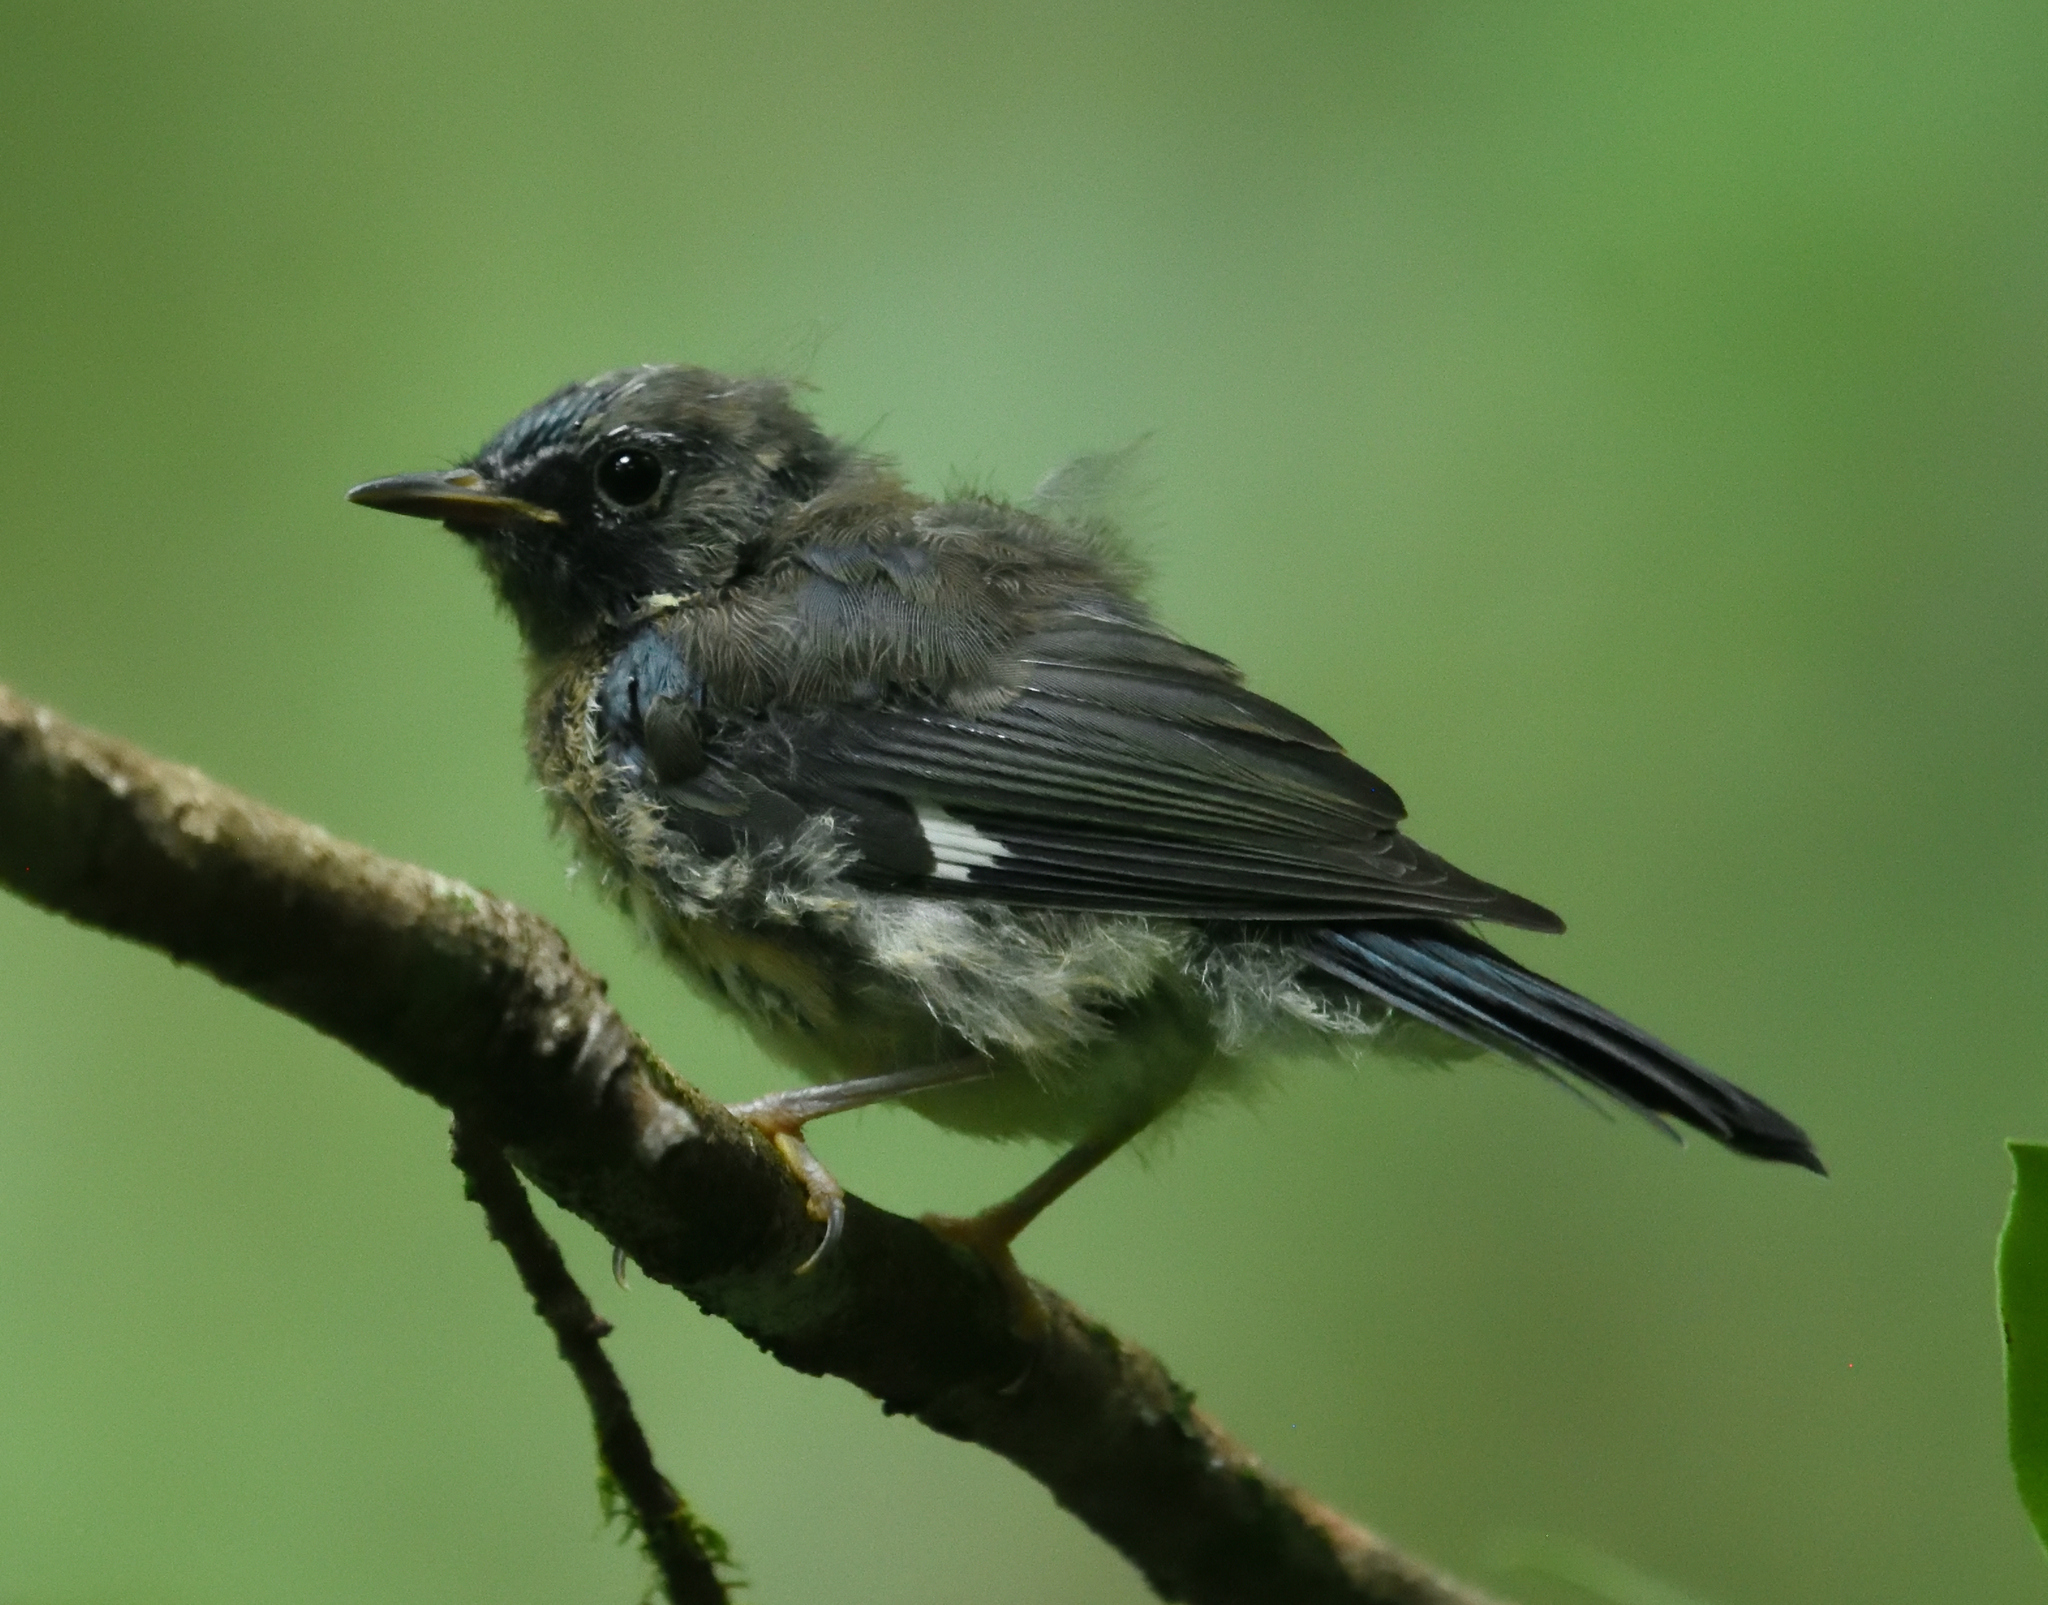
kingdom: Animalia
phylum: Chordata
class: Aves
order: Passeriformes
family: Parulidae
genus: Setophaga
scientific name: Setophaga caerulescens
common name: Black-throated blue warbler
